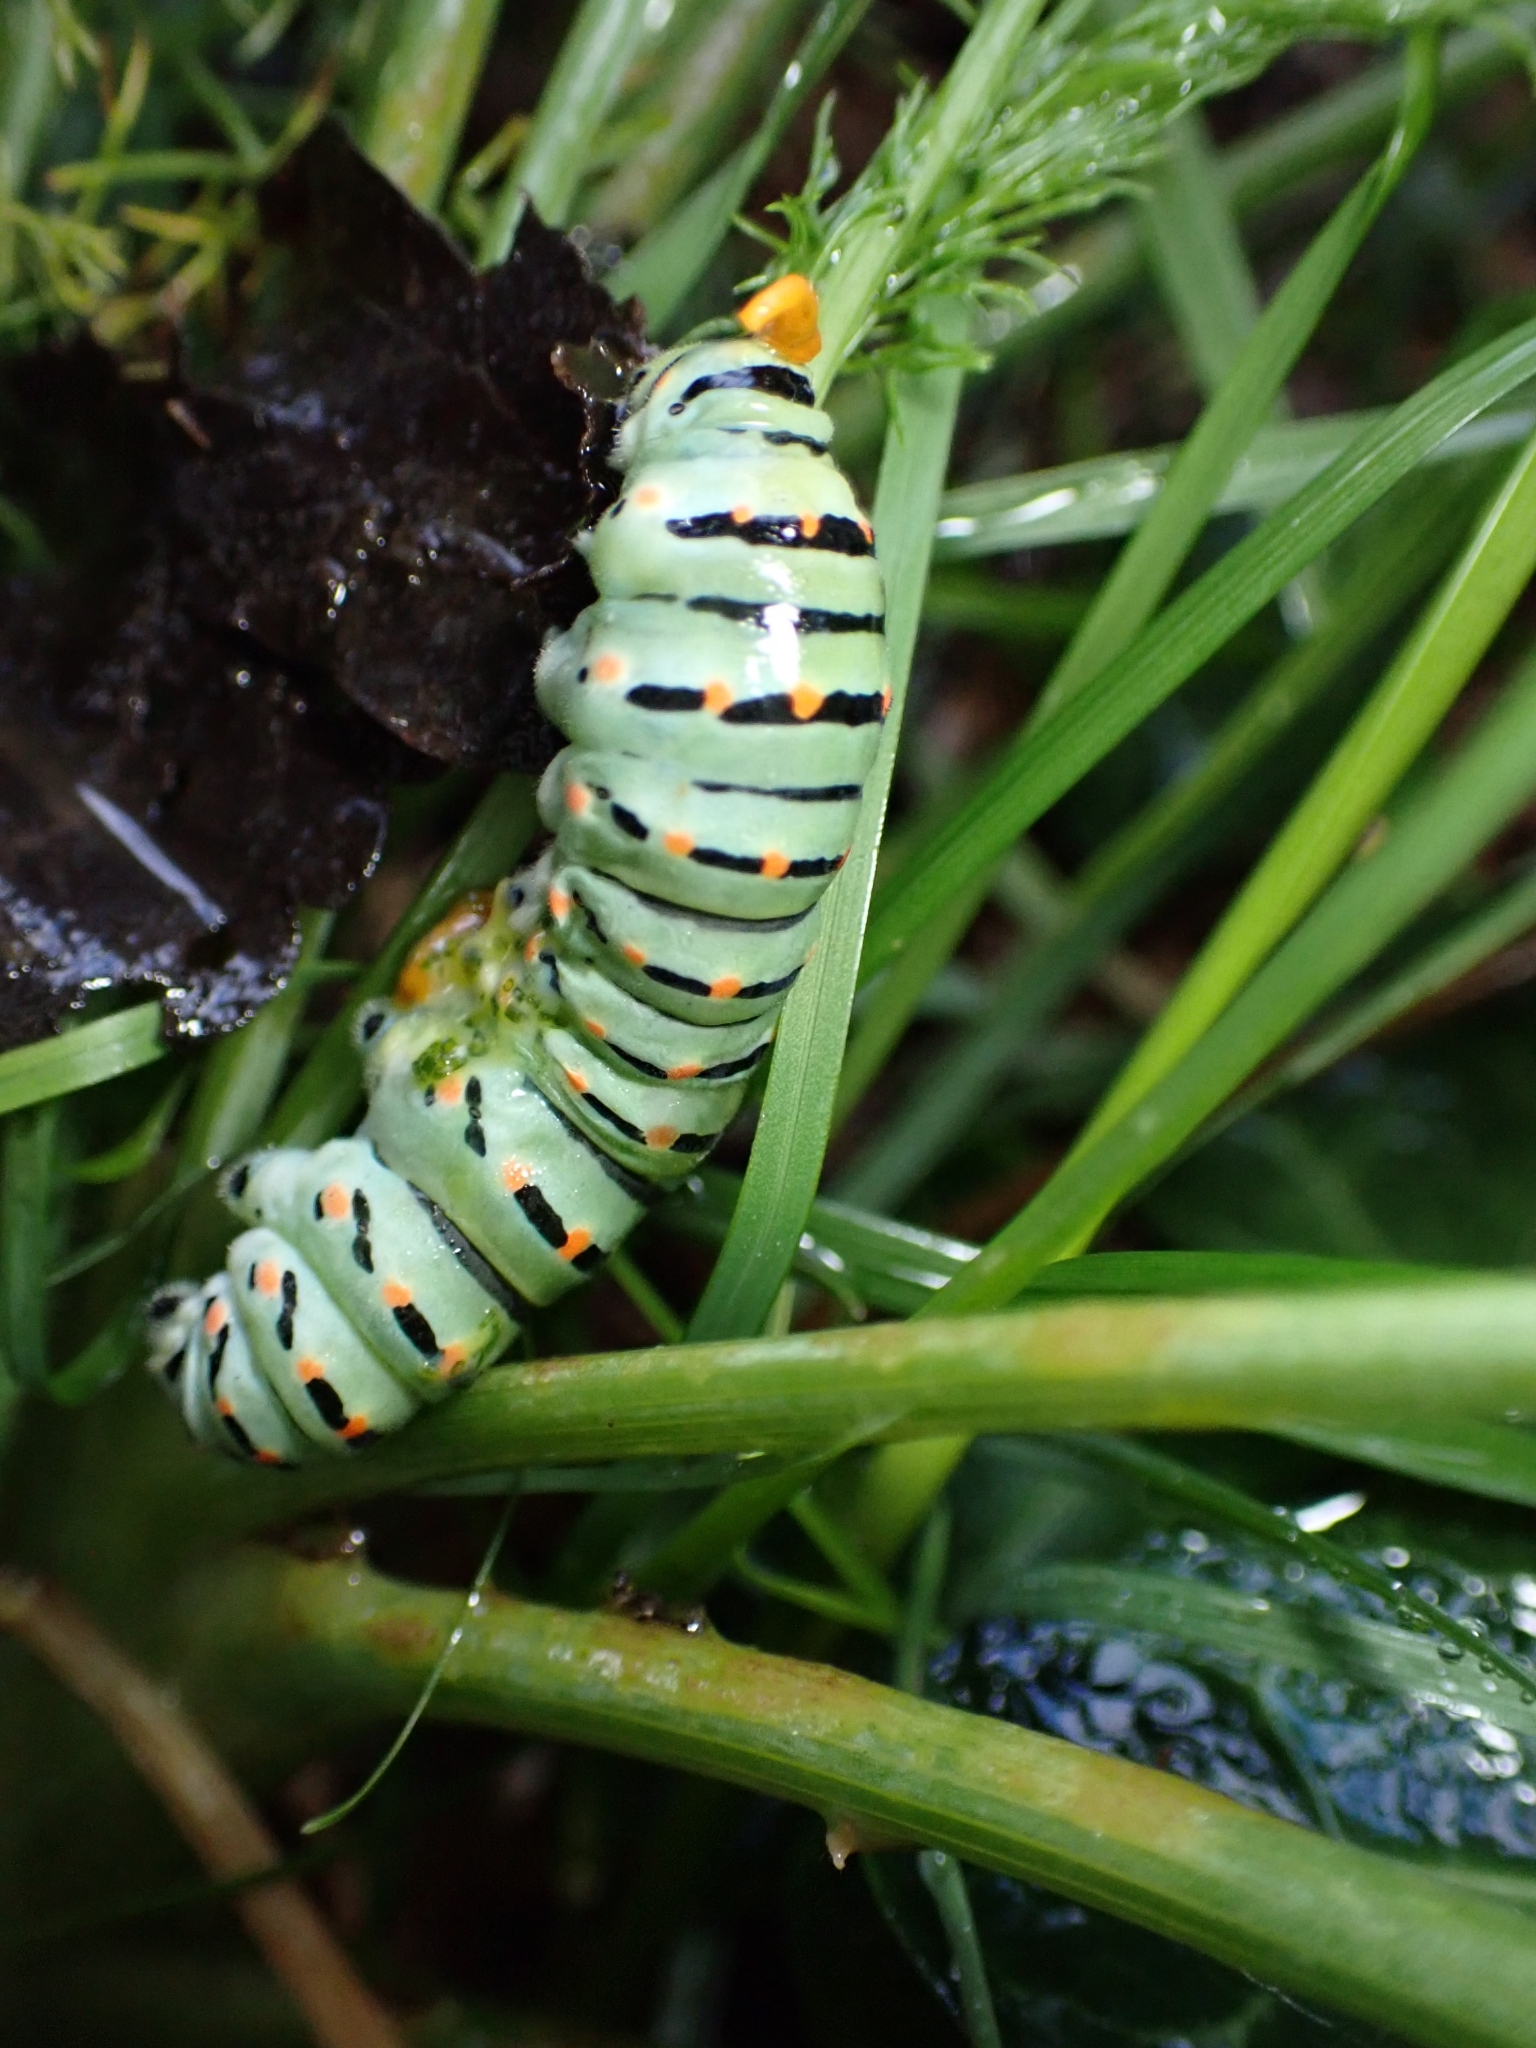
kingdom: Animalia
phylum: Arthropoda
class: Insecta
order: Lepidoptera
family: Papilionidae
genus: Papilio
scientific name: Papilio machaon
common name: Swallowtail
